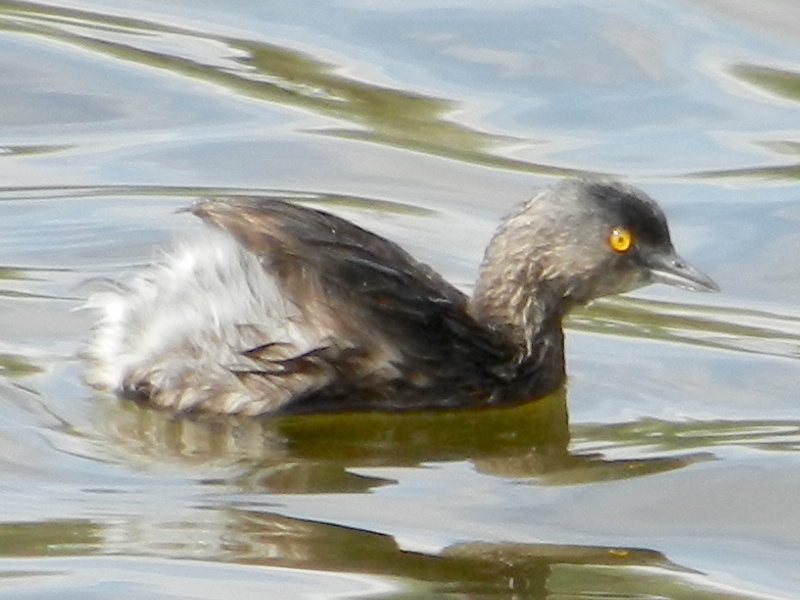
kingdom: Animalia
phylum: Chordata
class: Aves
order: Podicipediformes
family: Podicipedidae
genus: Tachybaptus
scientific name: Tachybaptus dominicus
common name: Least grebe
